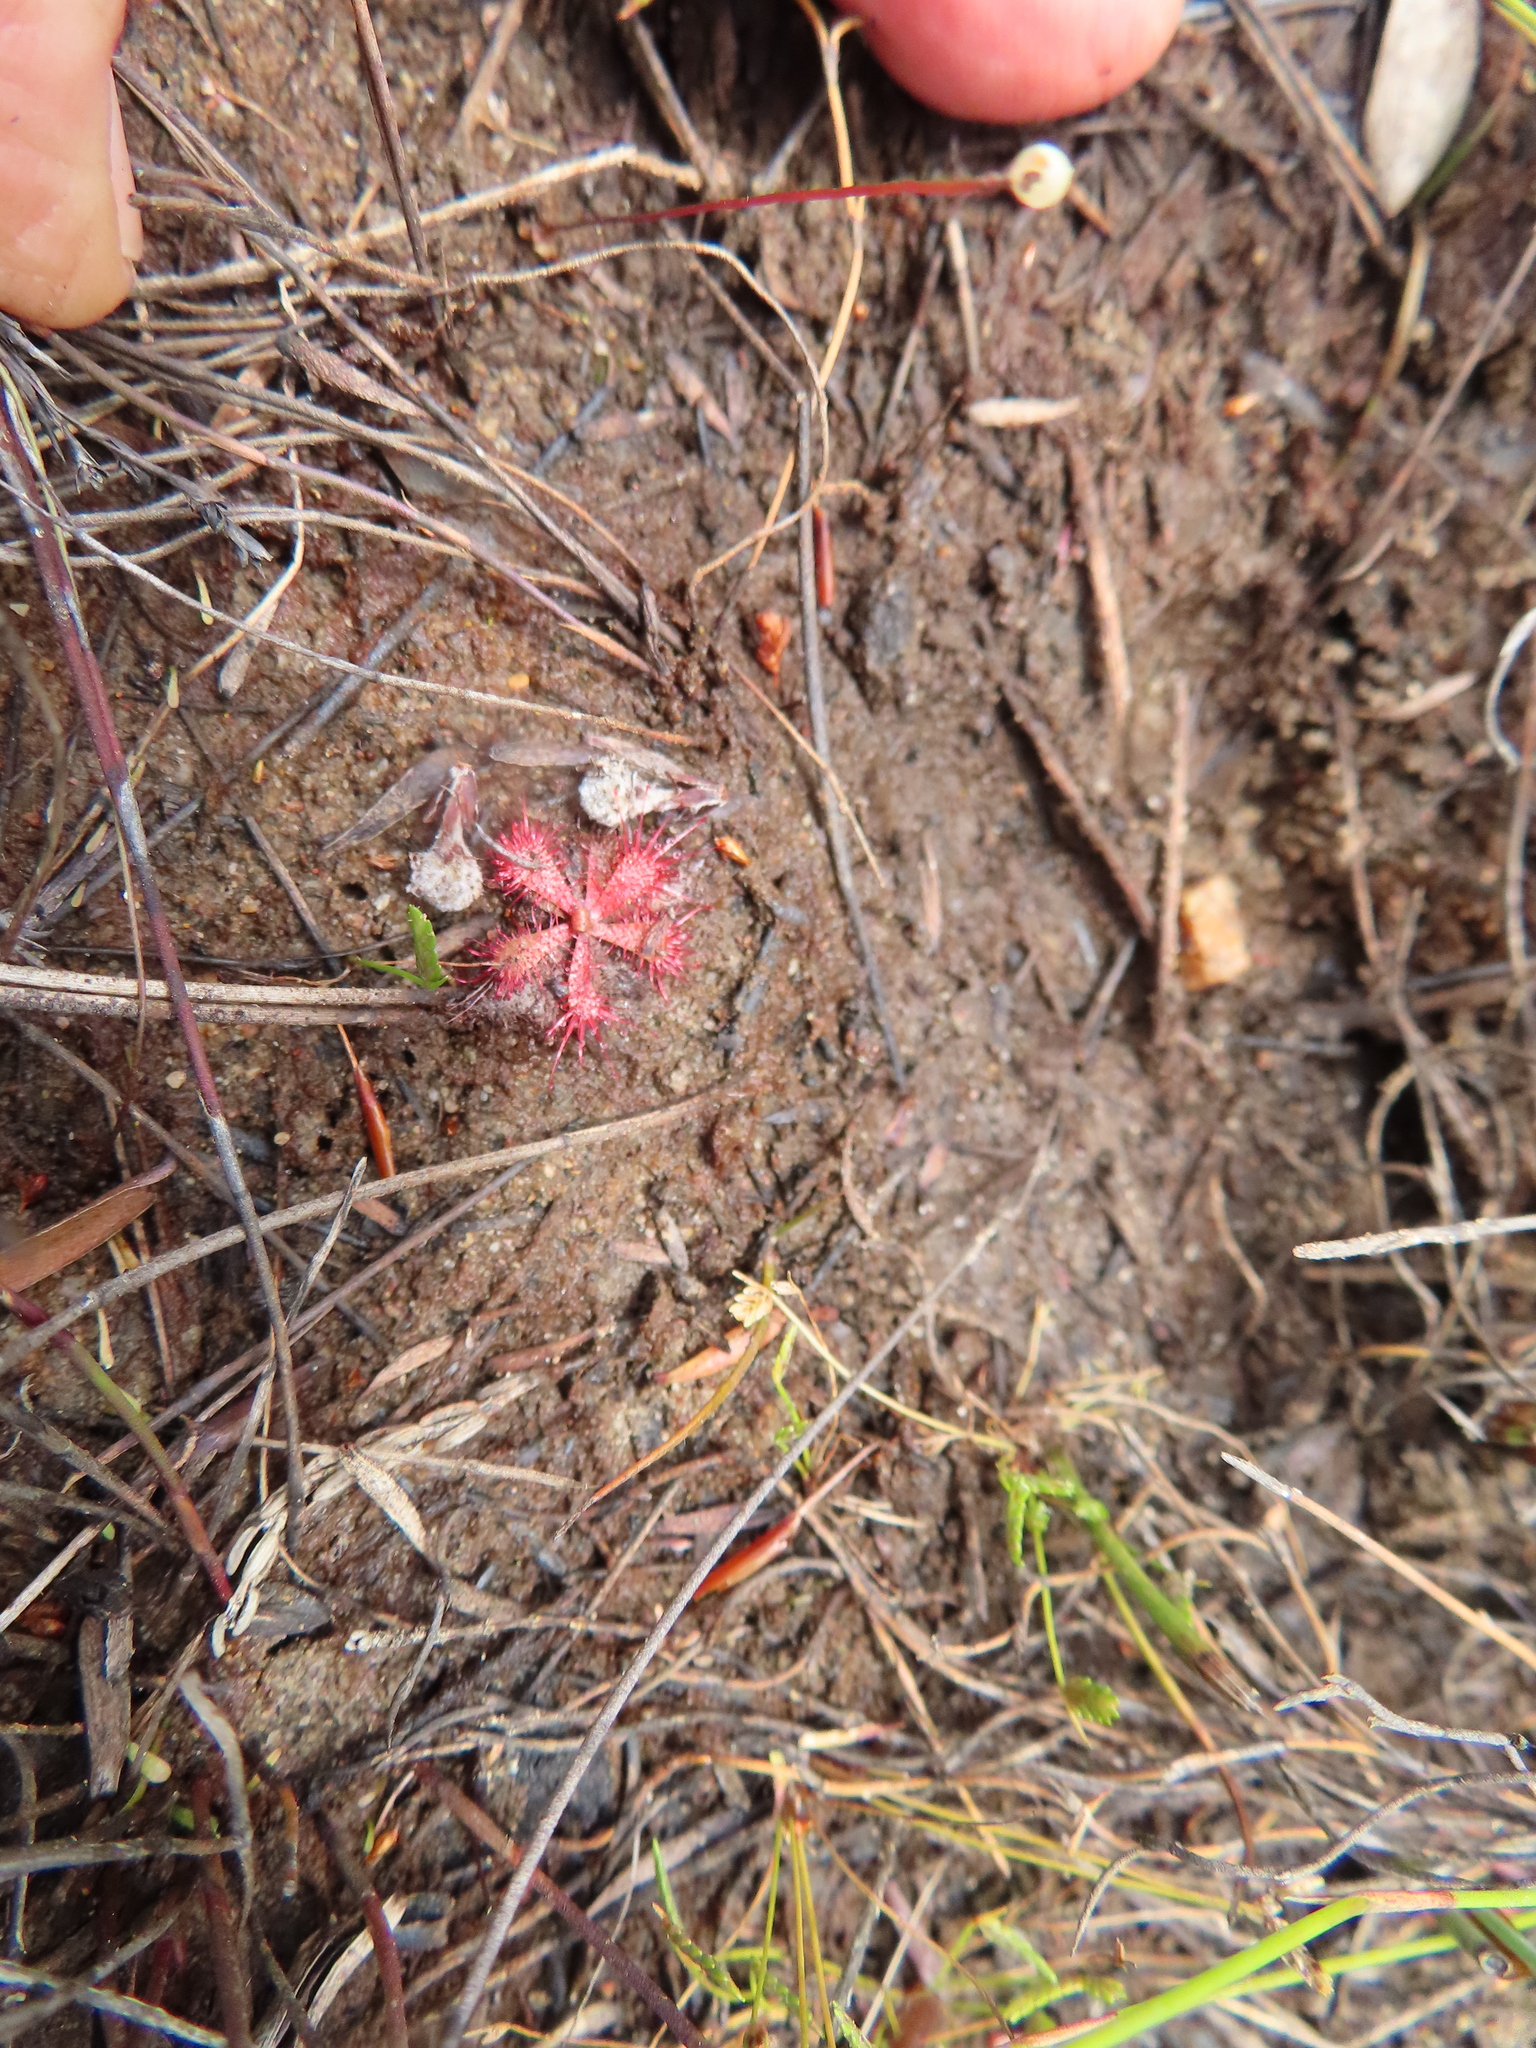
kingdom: Plantae
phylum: Tracheophyta
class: Magnoliopsida
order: Caryophyllales
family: Droseraceae
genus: Drosera
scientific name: Drosera trinervia
